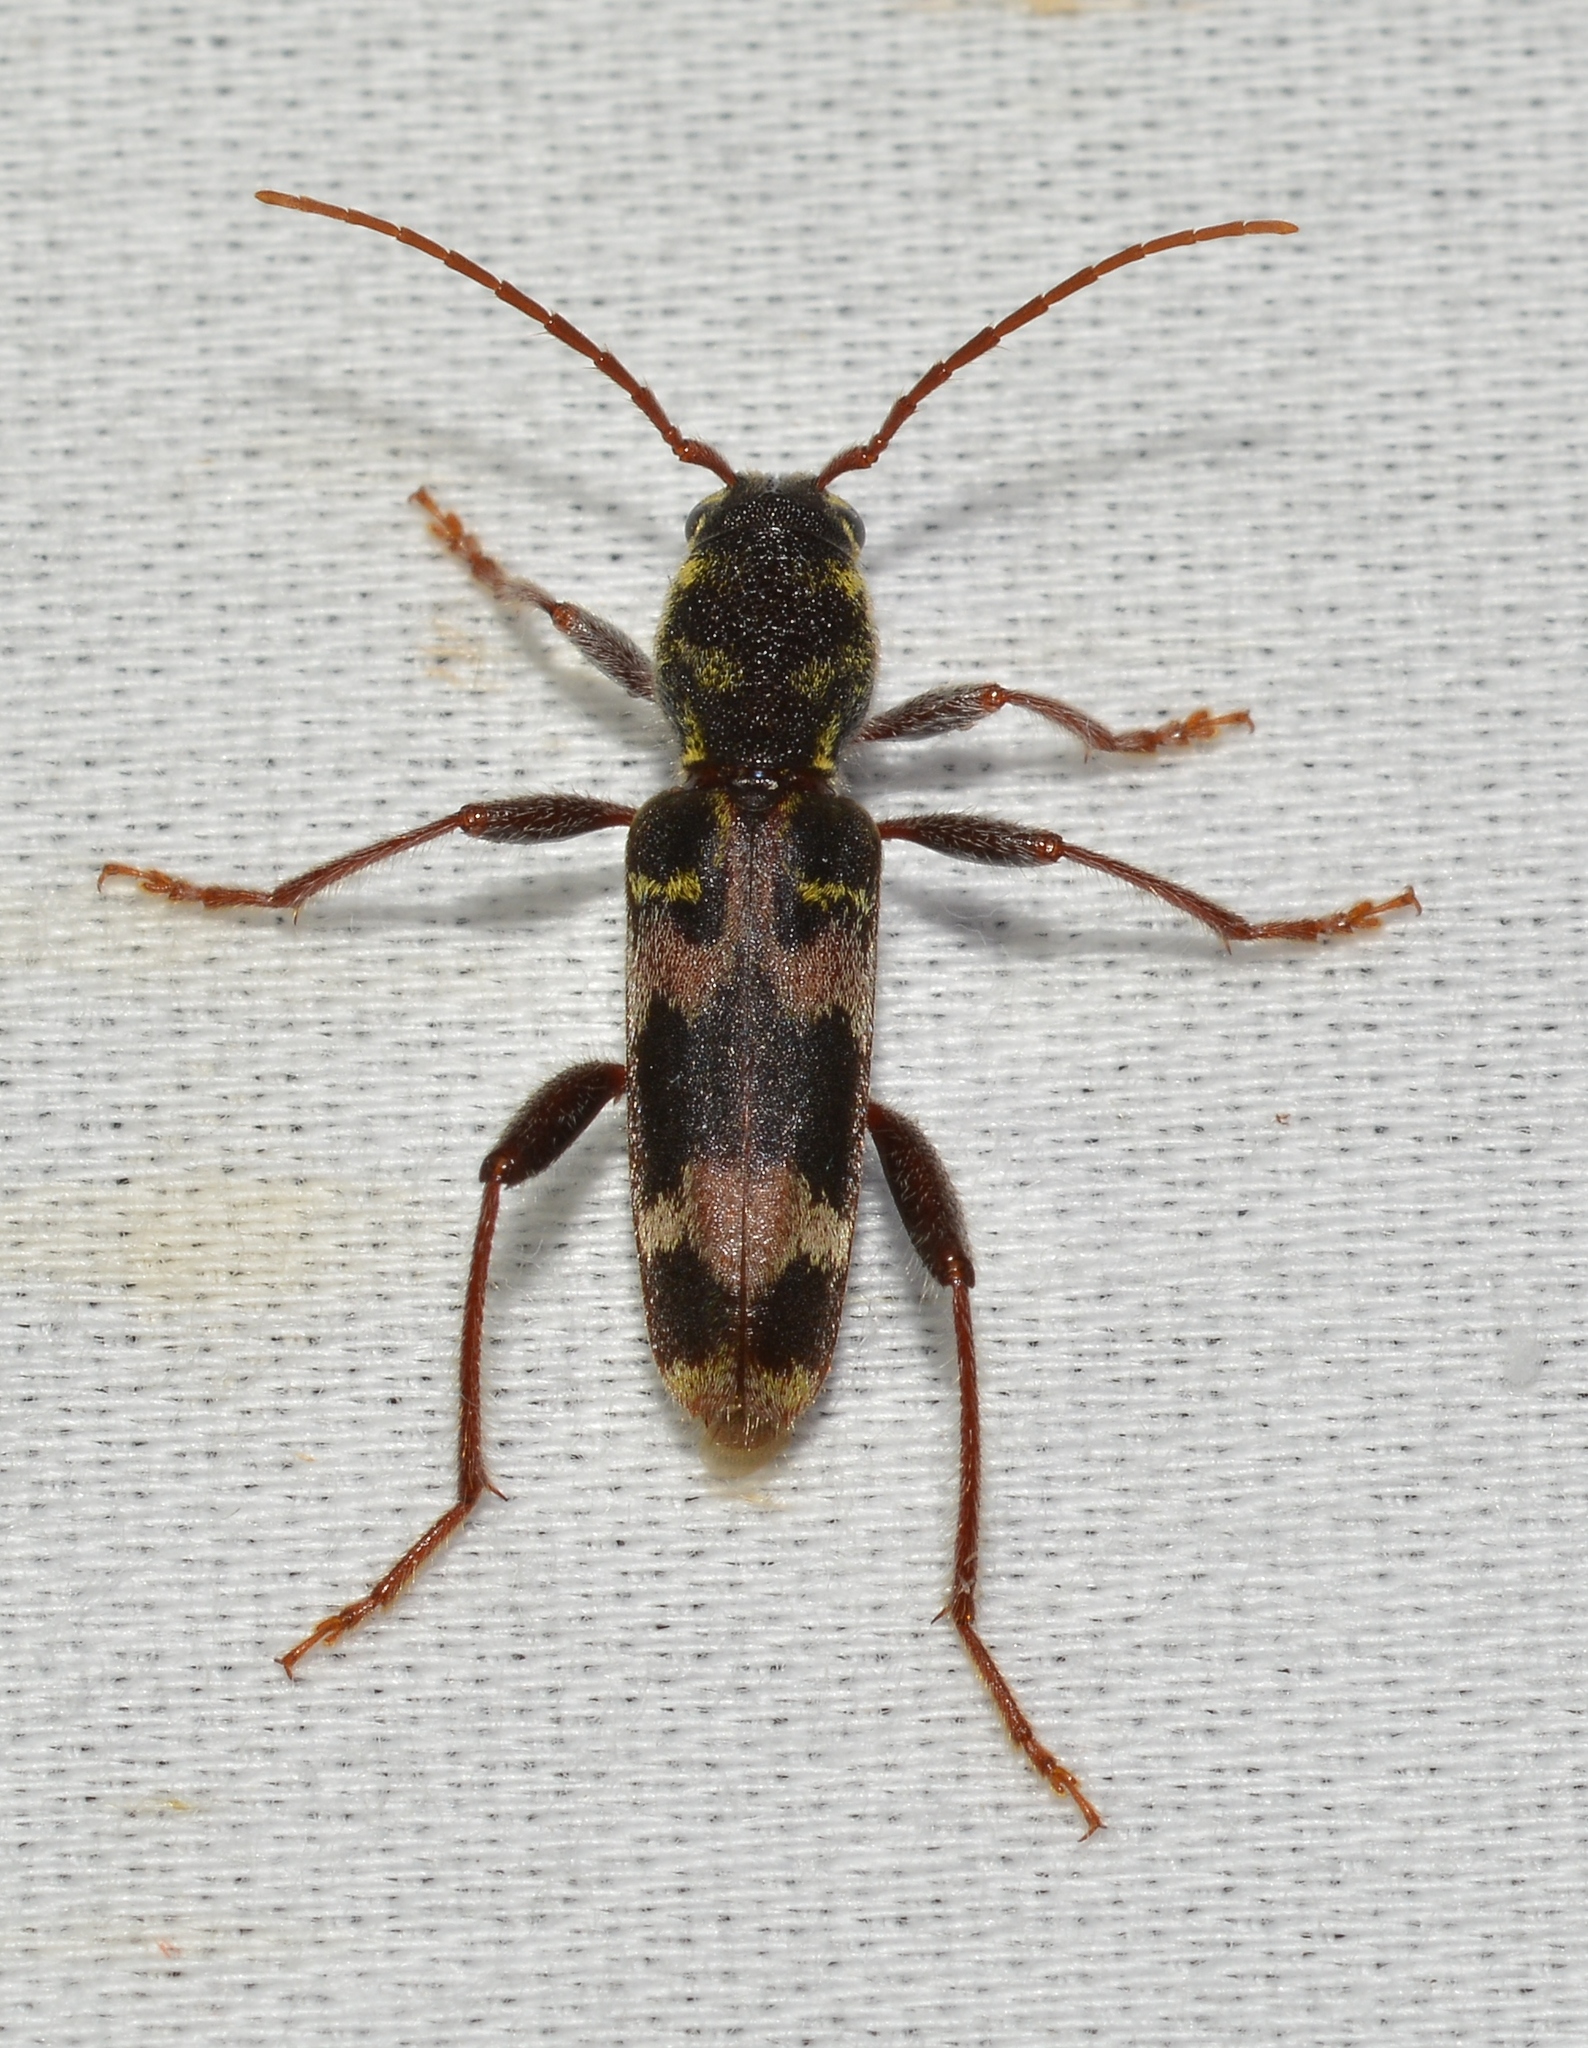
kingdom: Animalia
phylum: Arthropoda
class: Insecta
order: Coleoptera
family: Cerambycidae
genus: Xylotrechus
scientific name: Xylotrechus colonus
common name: Long-horned beetle
